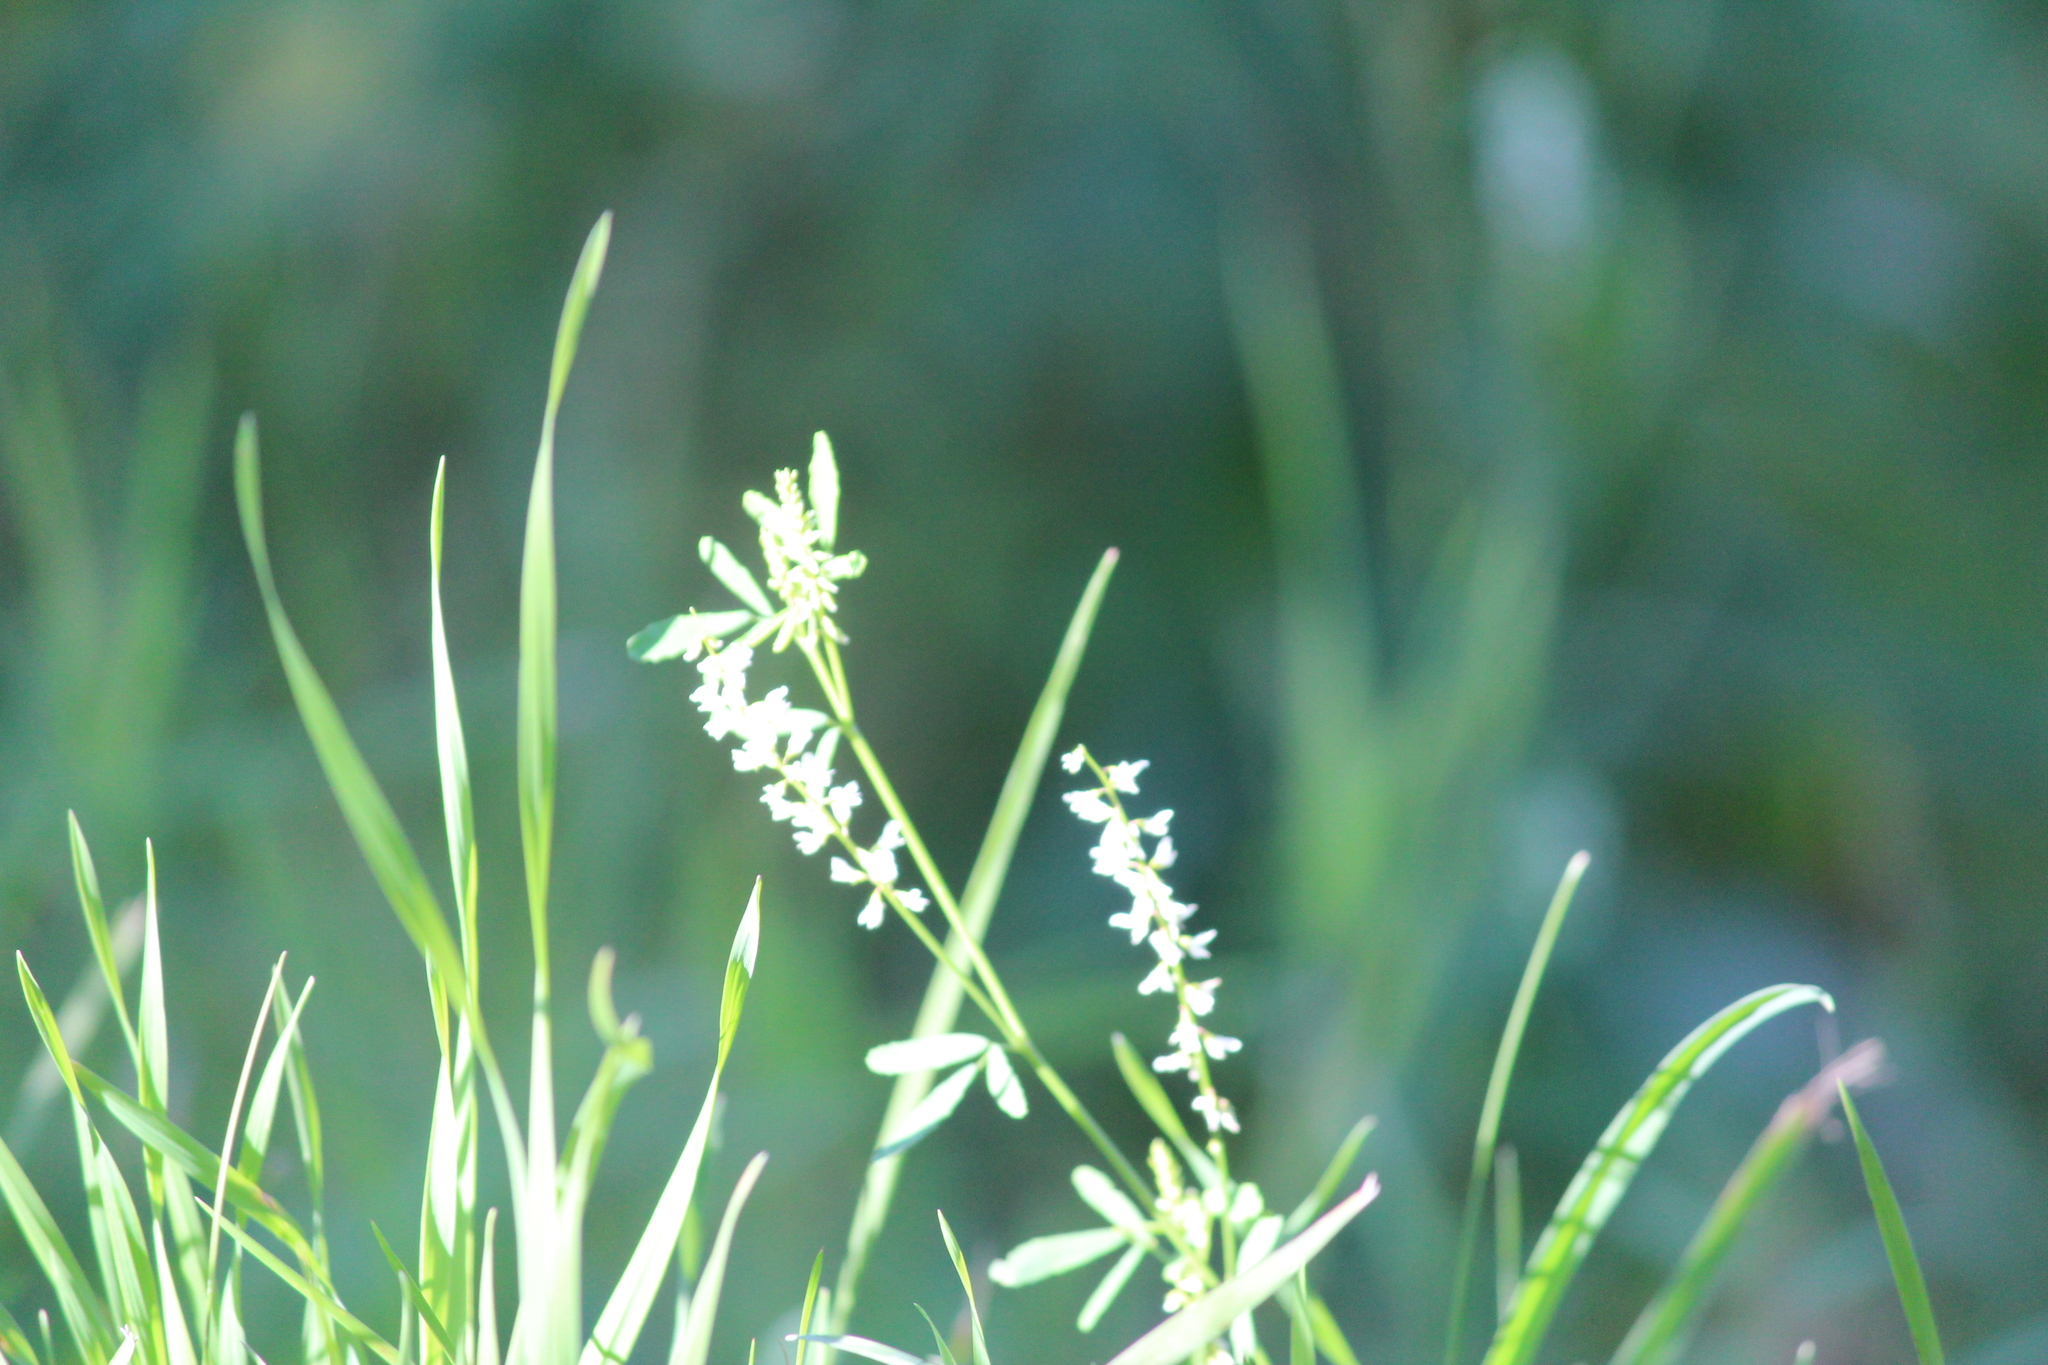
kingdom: Plantae
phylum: Tracheophyta
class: Magnoliopsida
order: Fabales
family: Fabaceae
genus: Melilotus
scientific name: Melilotus albus
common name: White melilot
